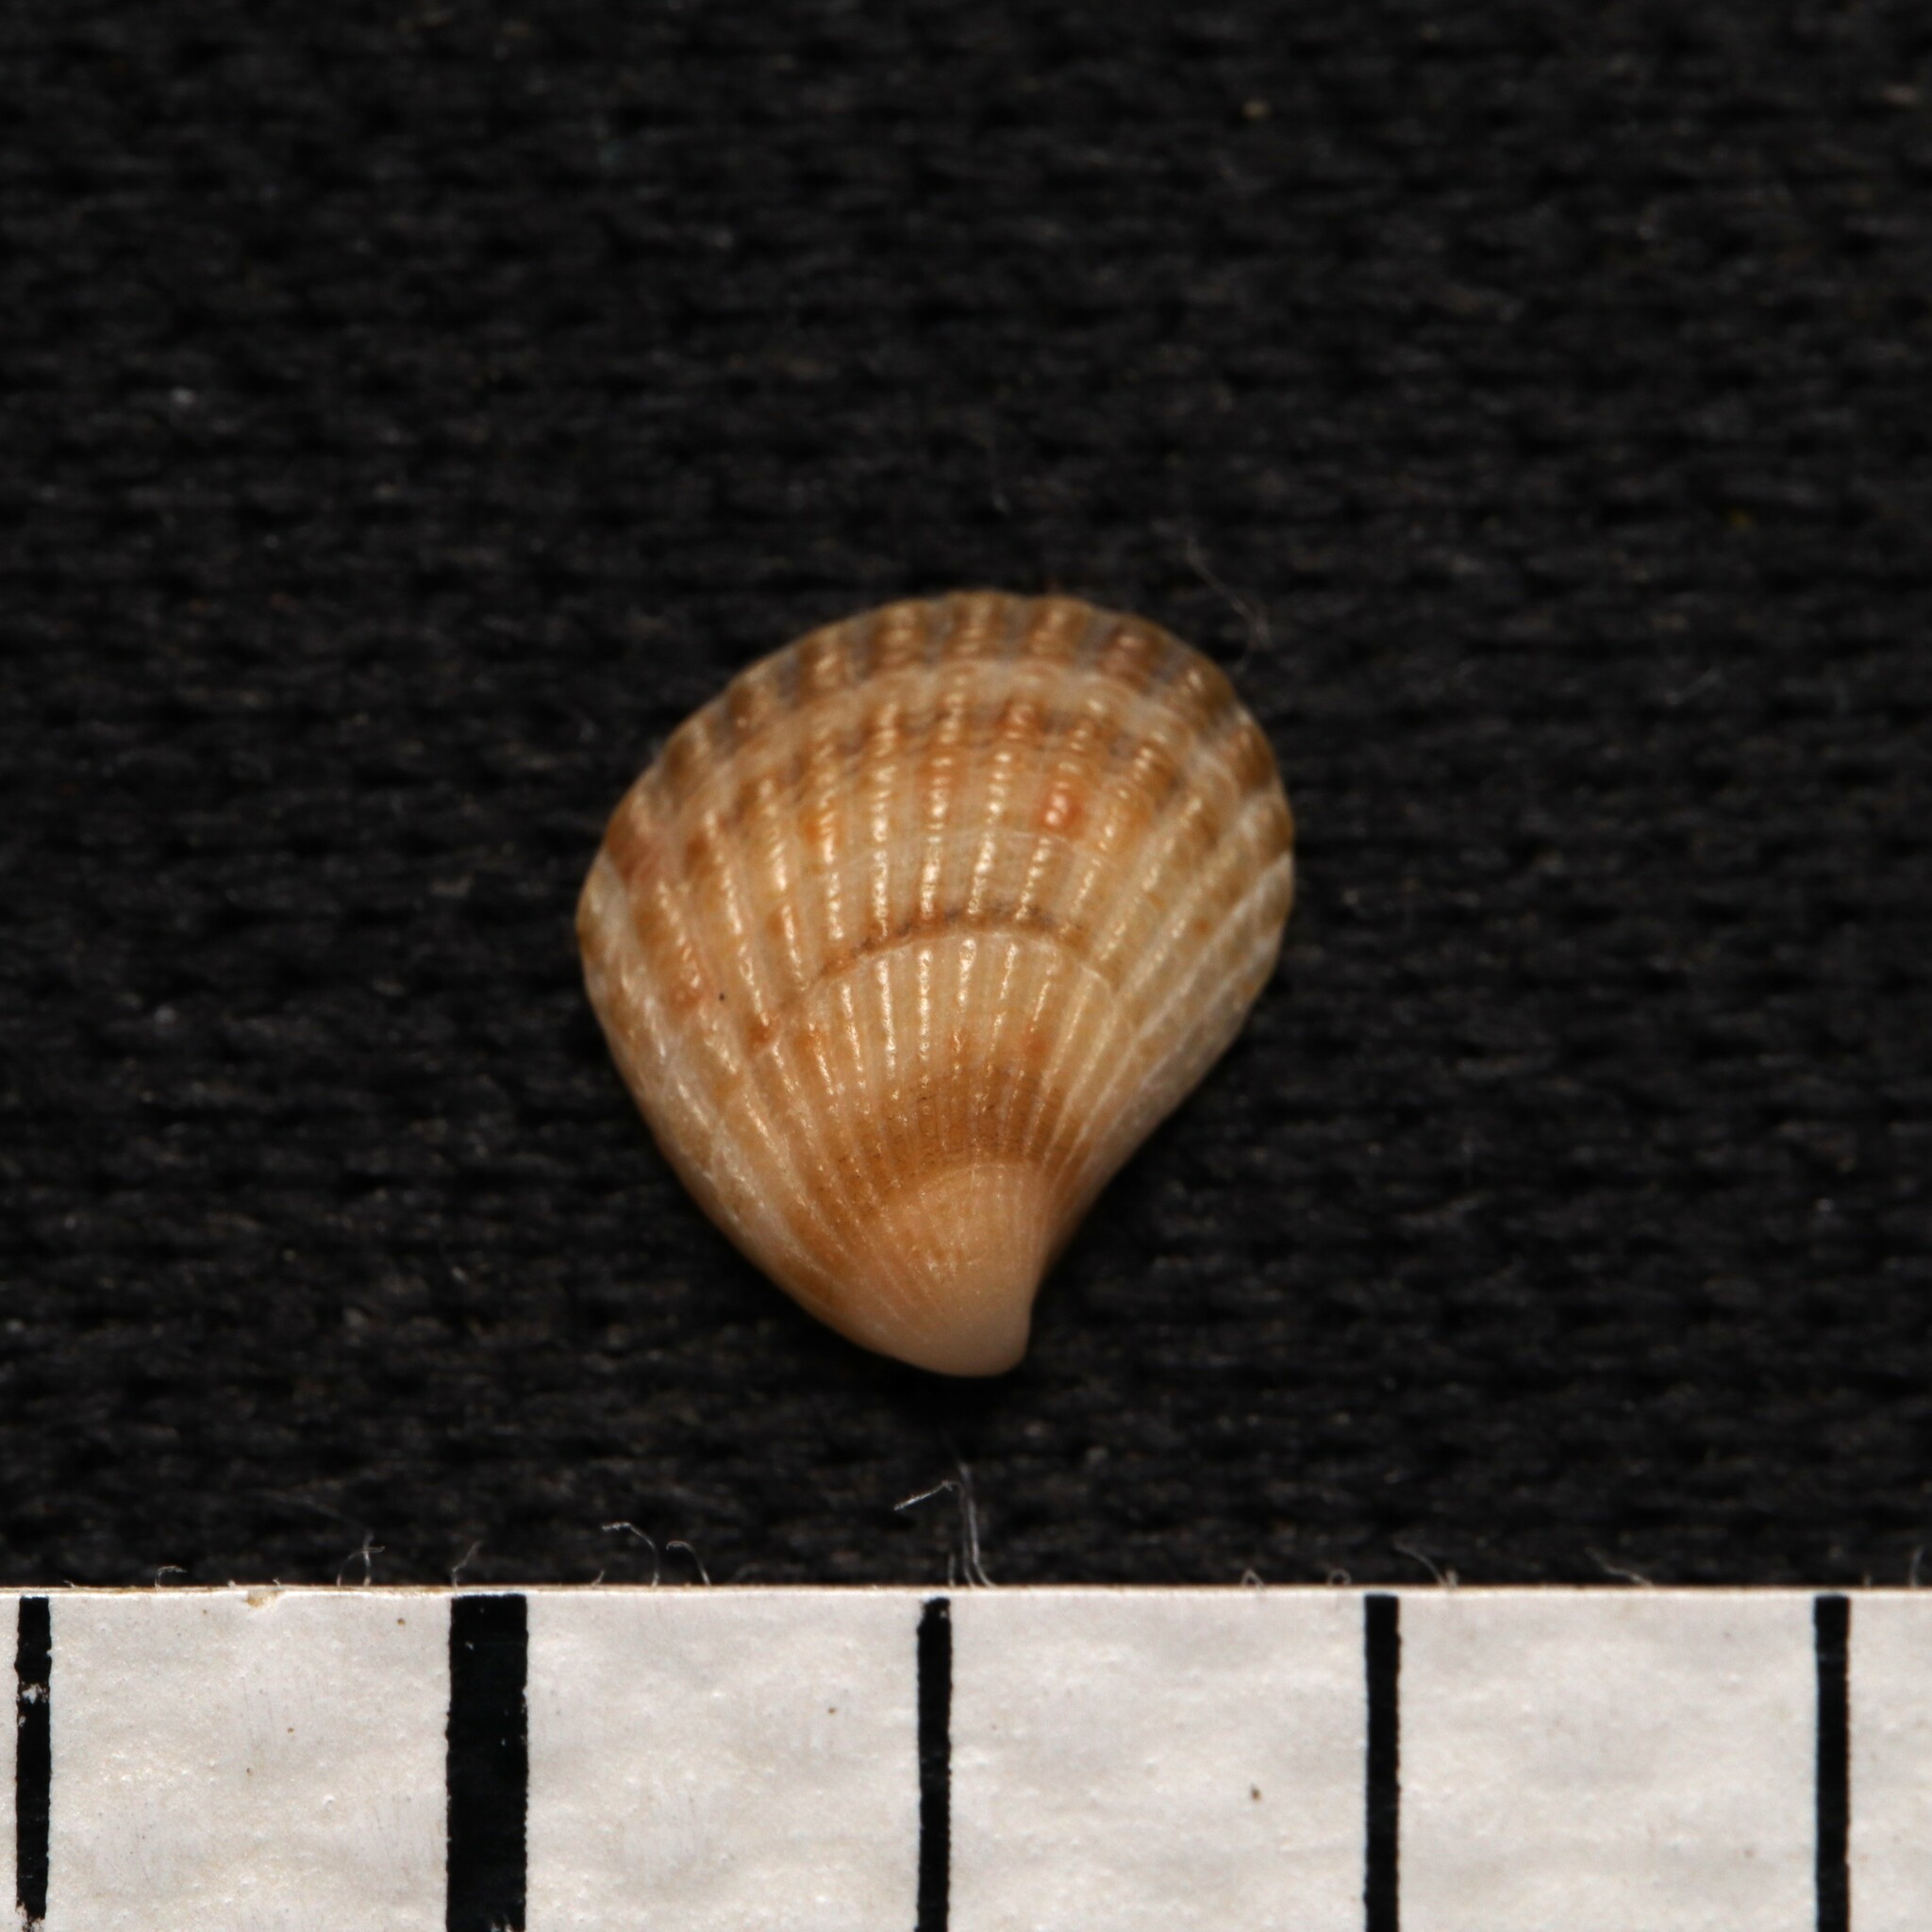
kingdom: Animalia
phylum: Mollusca
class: Bivalvia
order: Carditida
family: Carditidae
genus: Pteromeris
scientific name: Pteromeris perplana
